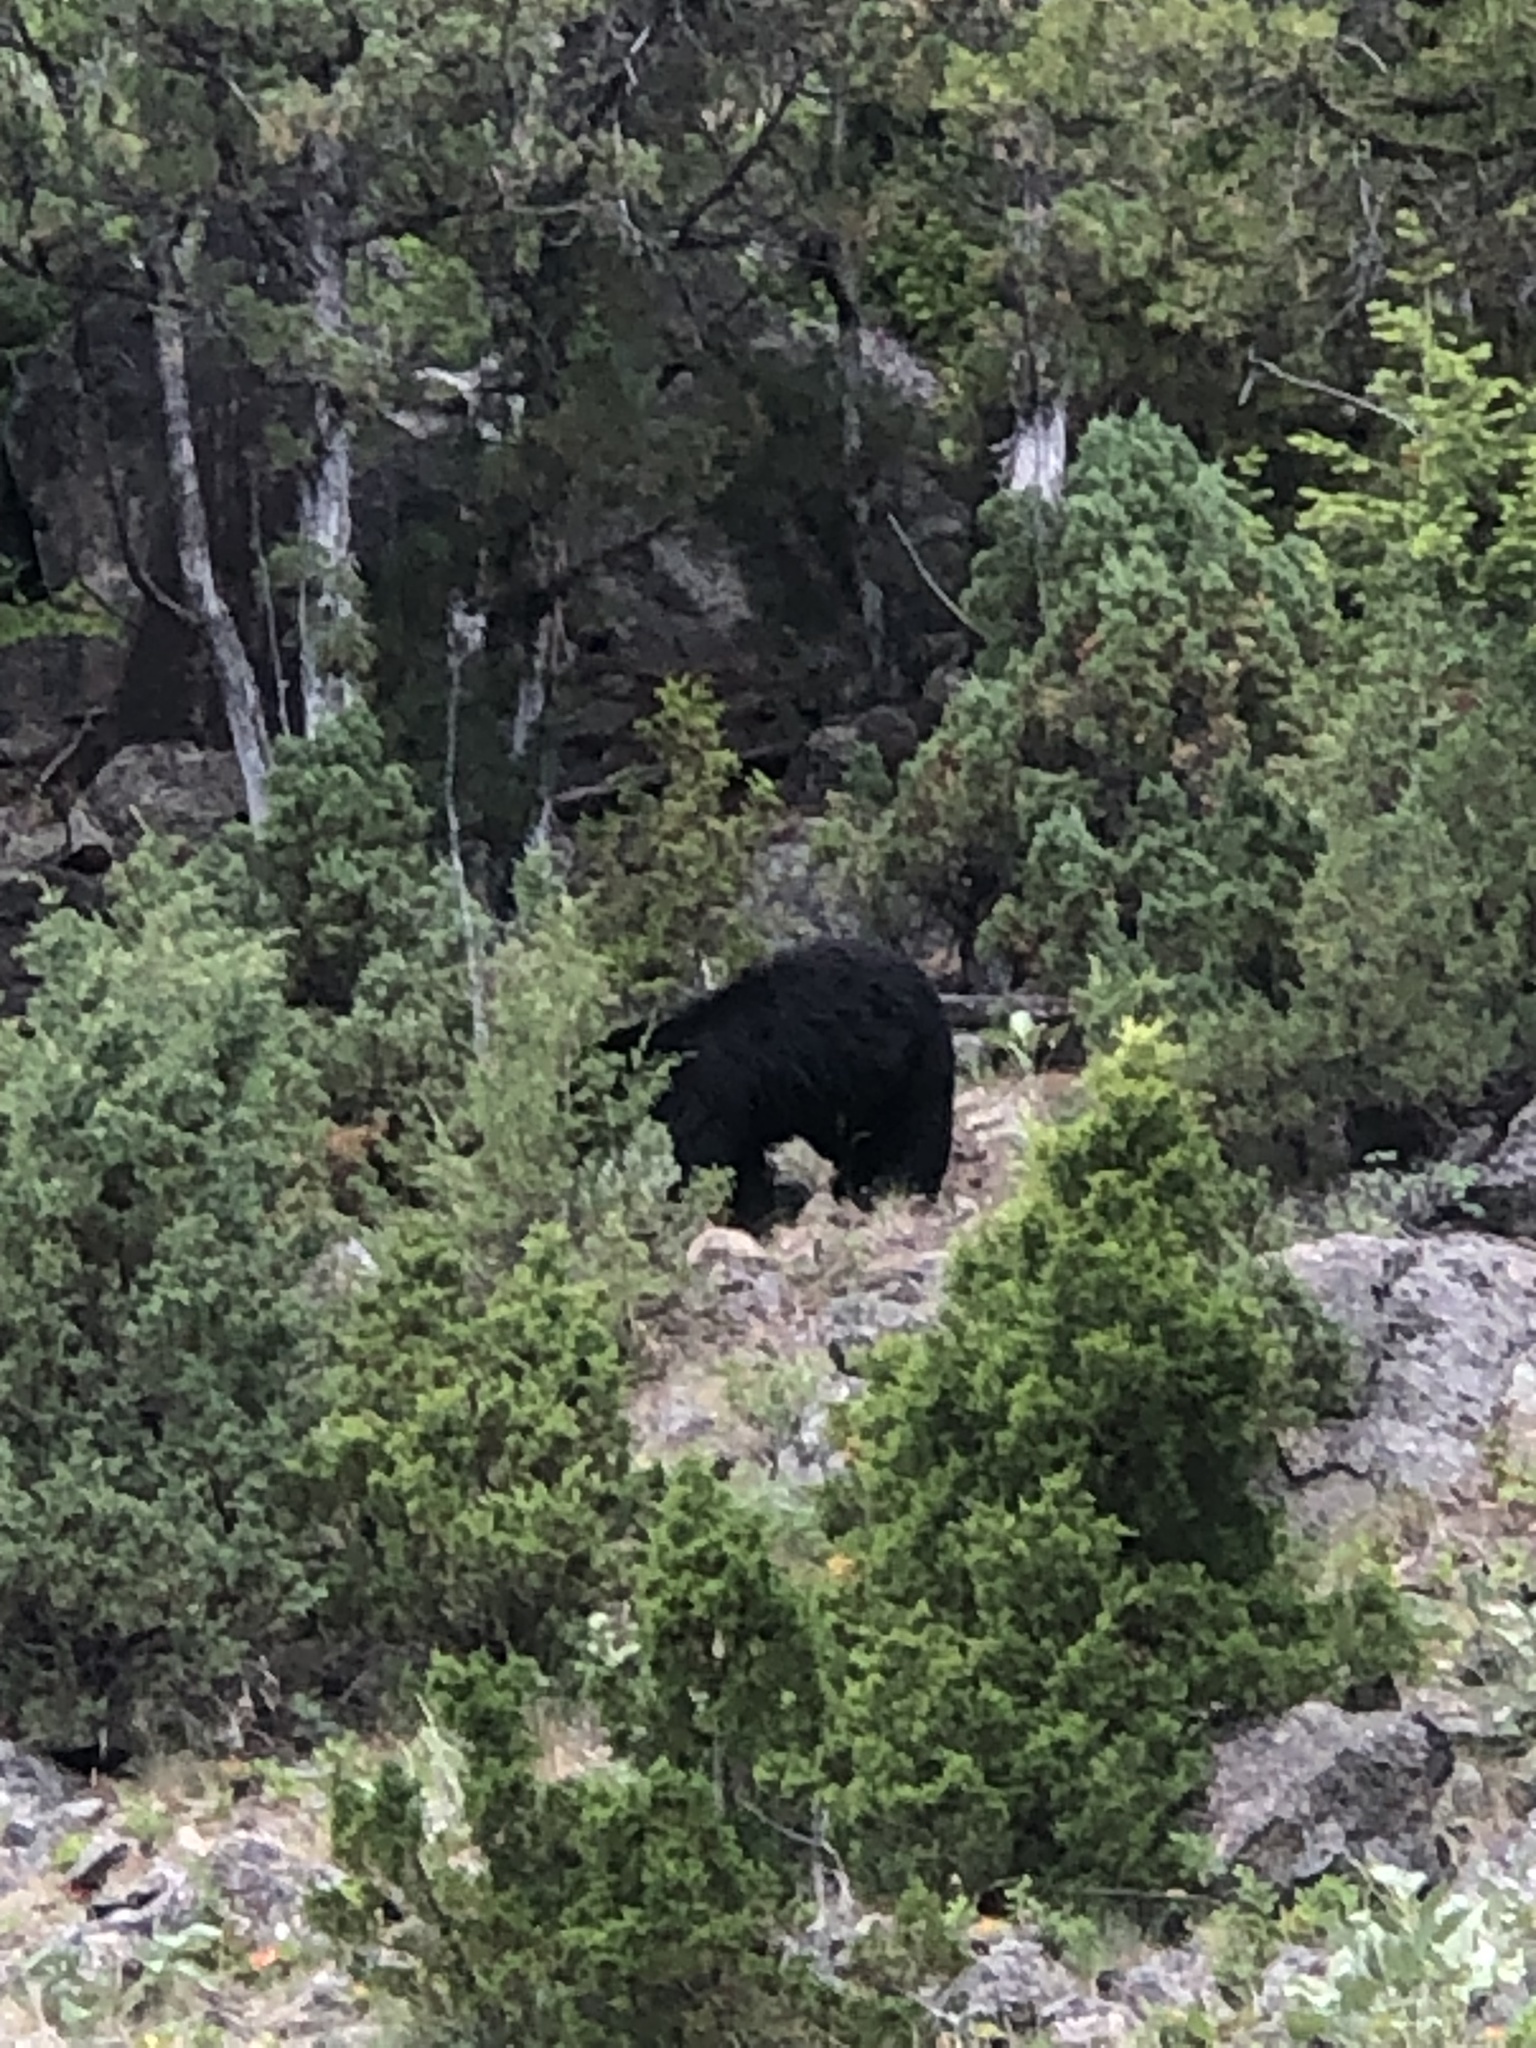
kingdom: Animalia
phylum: Chordata
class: Mammalia
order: Carnivora
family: Ursidae
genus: Ursus
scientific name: Ursus americanus
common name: American black bear
